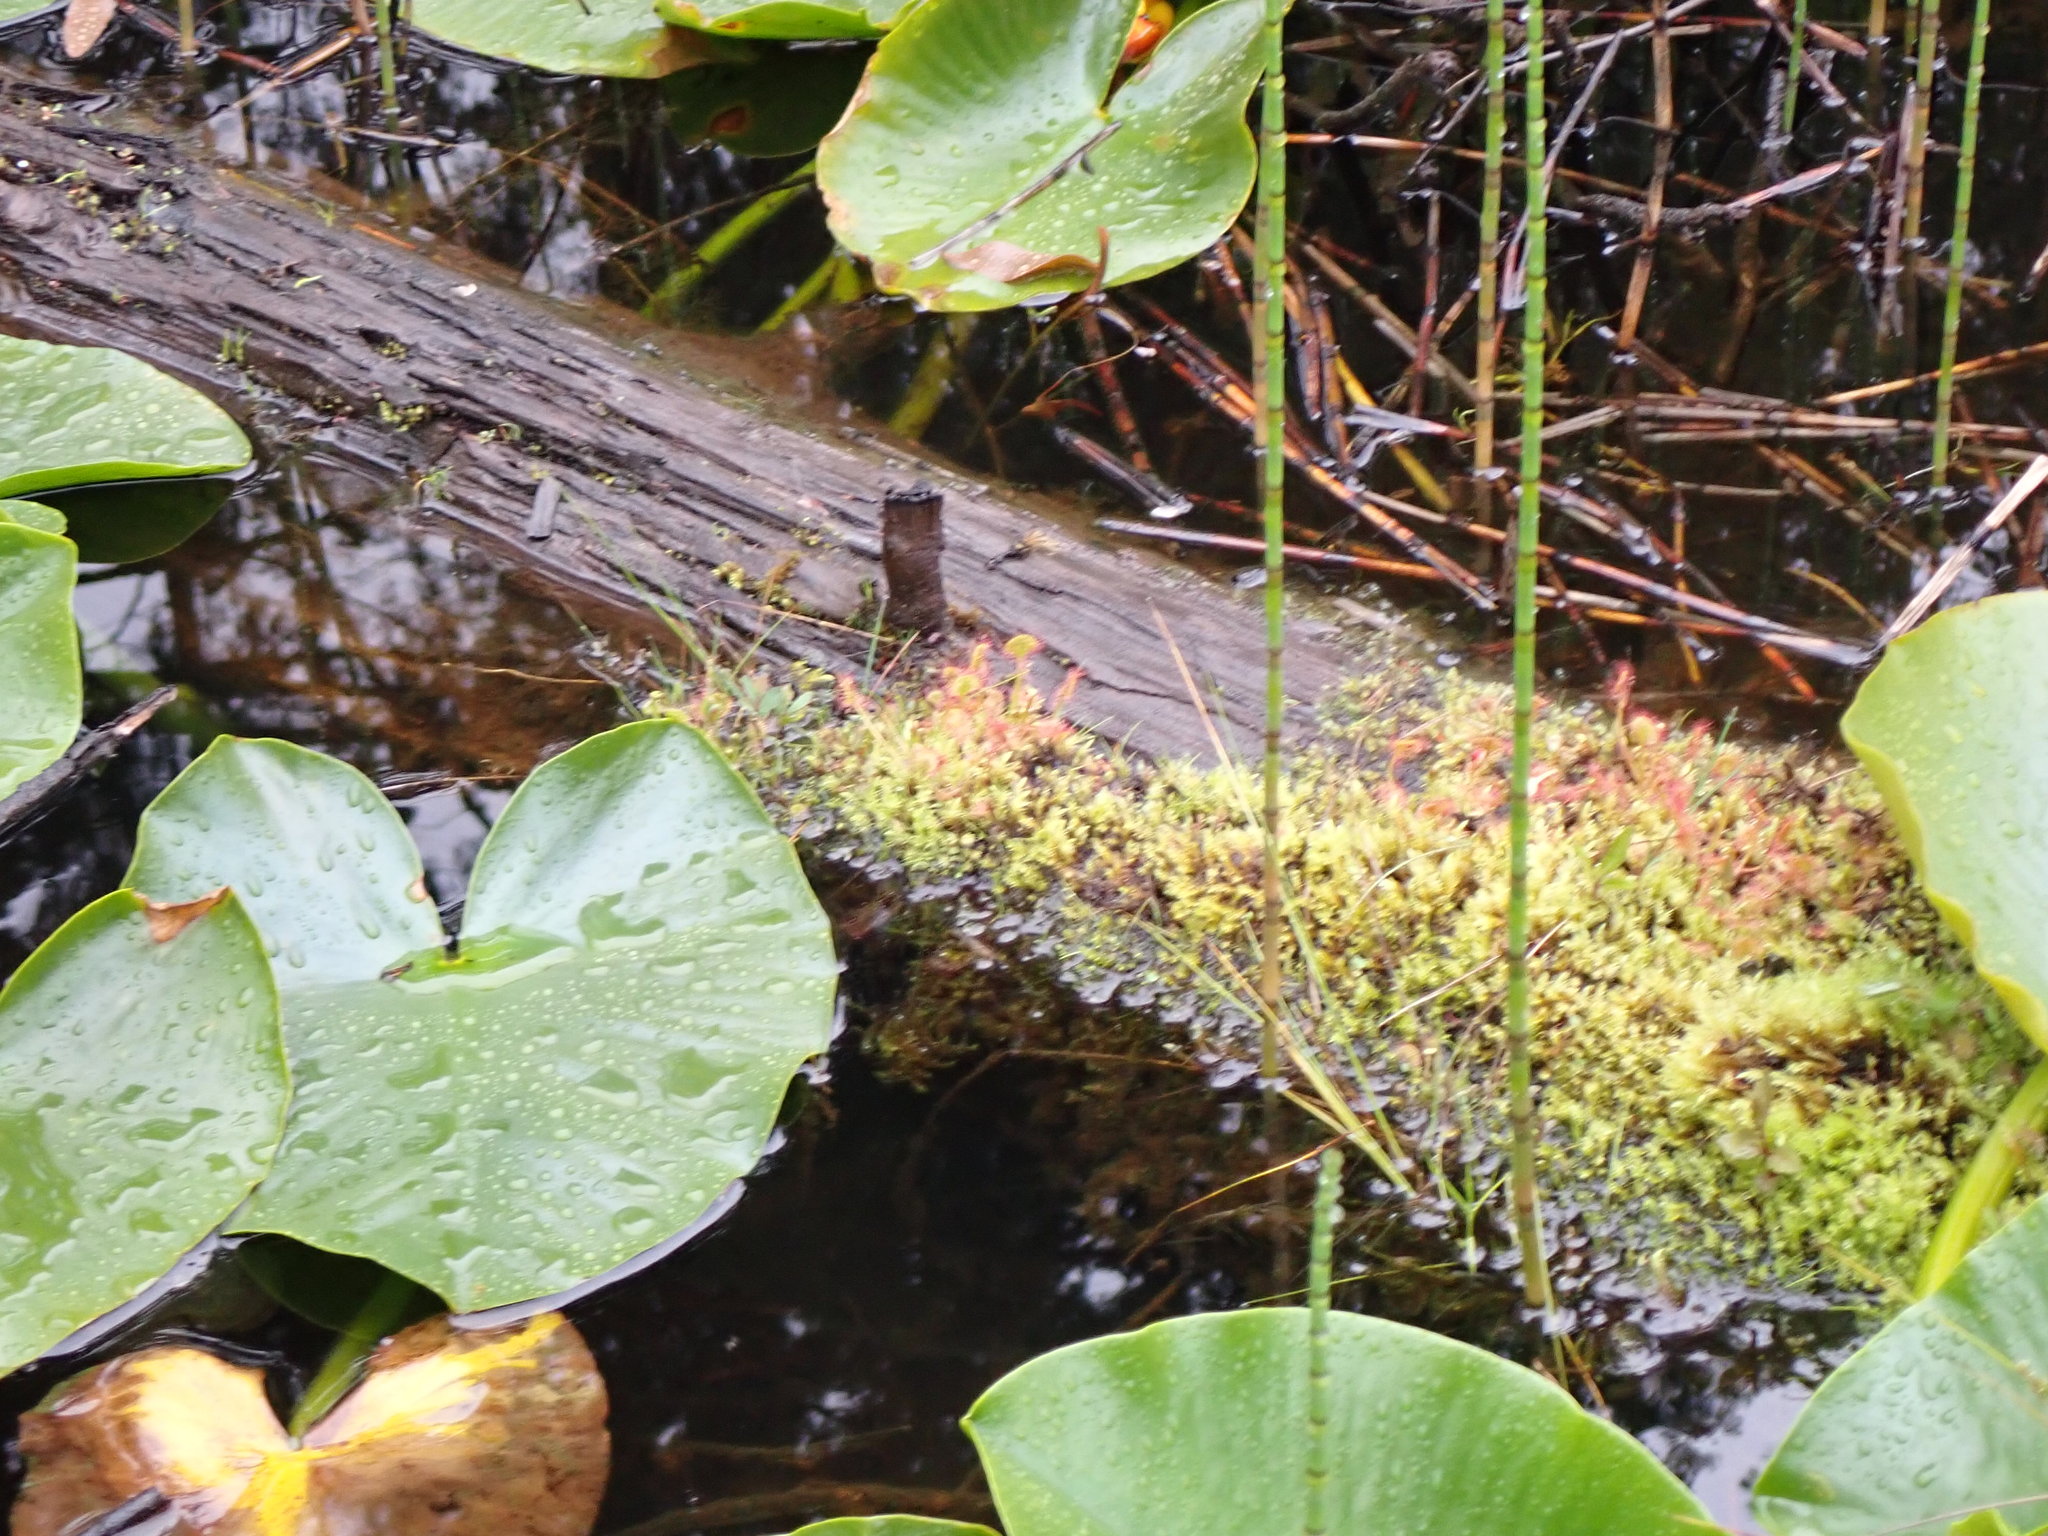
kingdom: Plantae
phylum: Tracheophyta
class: Magnoliopsida
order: Caryophyllales
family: Droseraceae
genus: Drosera
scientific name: Drosera rotundifolia
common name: Round-leaved sundew
